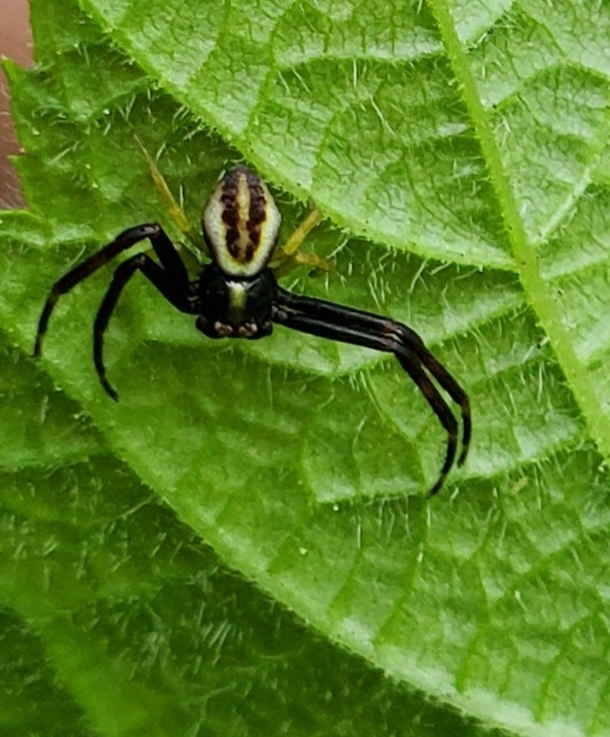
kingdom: Animalia
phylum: Arthropoda
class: Arachnida
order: Araneae
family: Thomisidae
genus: Misumena
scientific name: Misumena vatia
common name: Goldenrod crab spider
